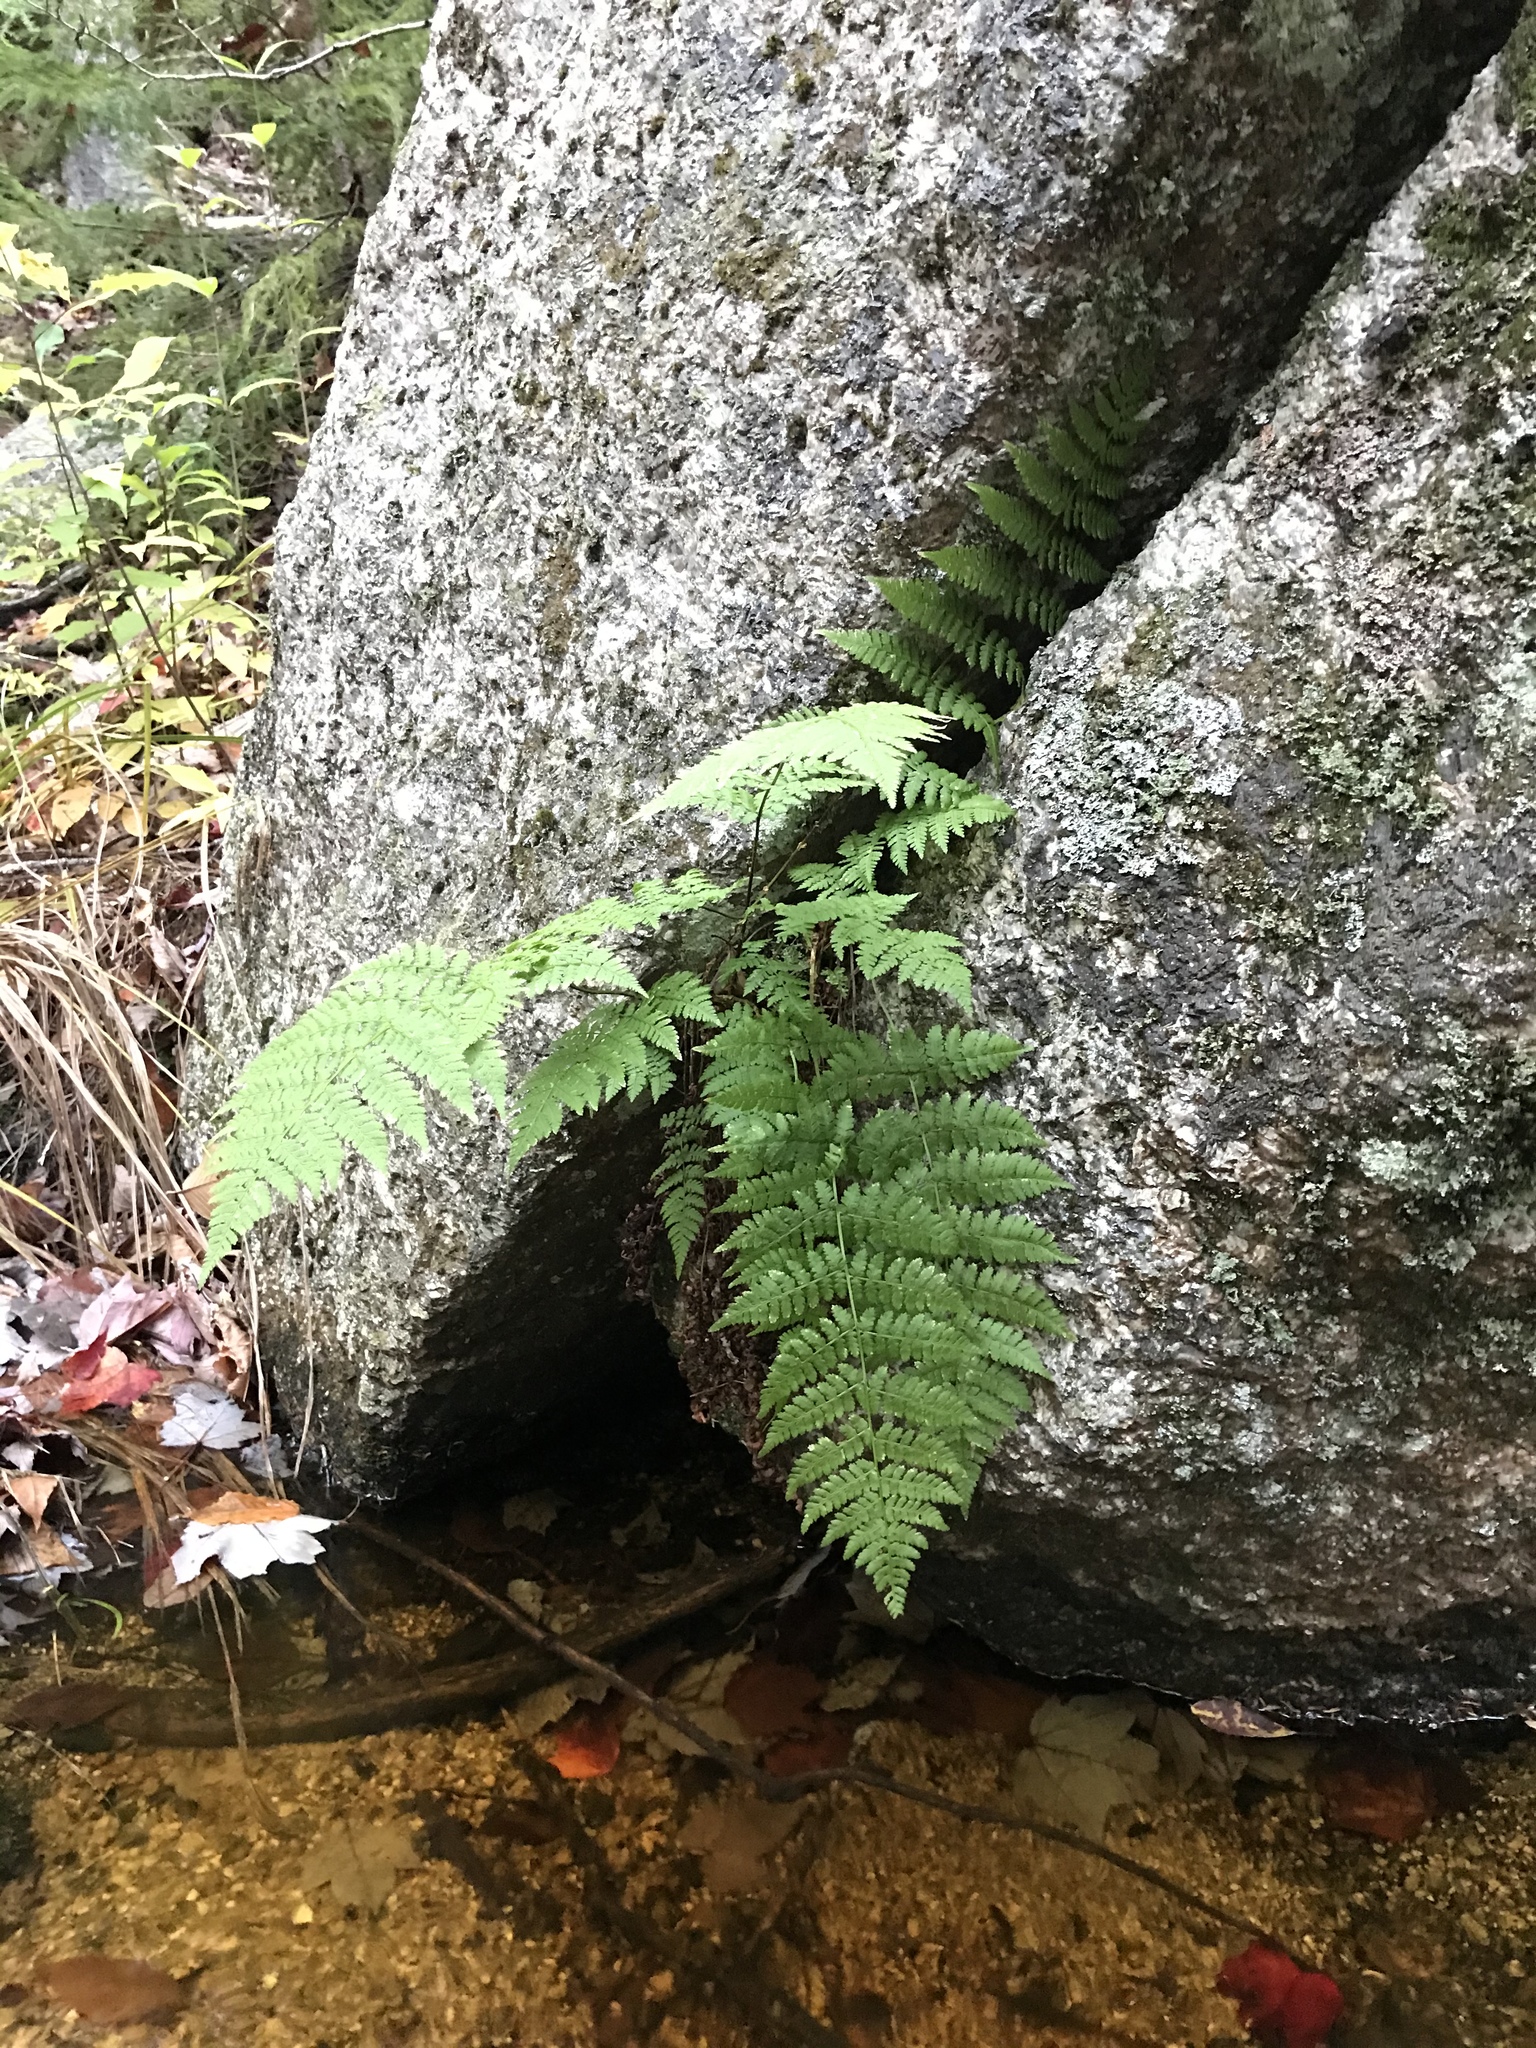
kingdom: Plantae
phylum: Tracheophyta
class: Polypodiopsida
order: Polypodiales
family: Dryopteridaceae
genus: Dryopteris
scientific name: Dryopteris intermedia
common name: Evergreen wood fern
